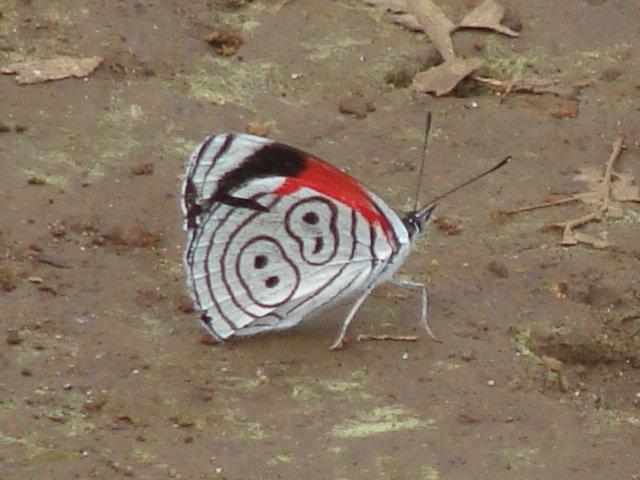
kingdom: Animalia
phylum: Arthropoda
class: Insecta
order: Lepidoptera
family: Nymphalidae
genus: Diaethria
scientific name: Diaethria anna
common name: Anna’s eighty-eight
